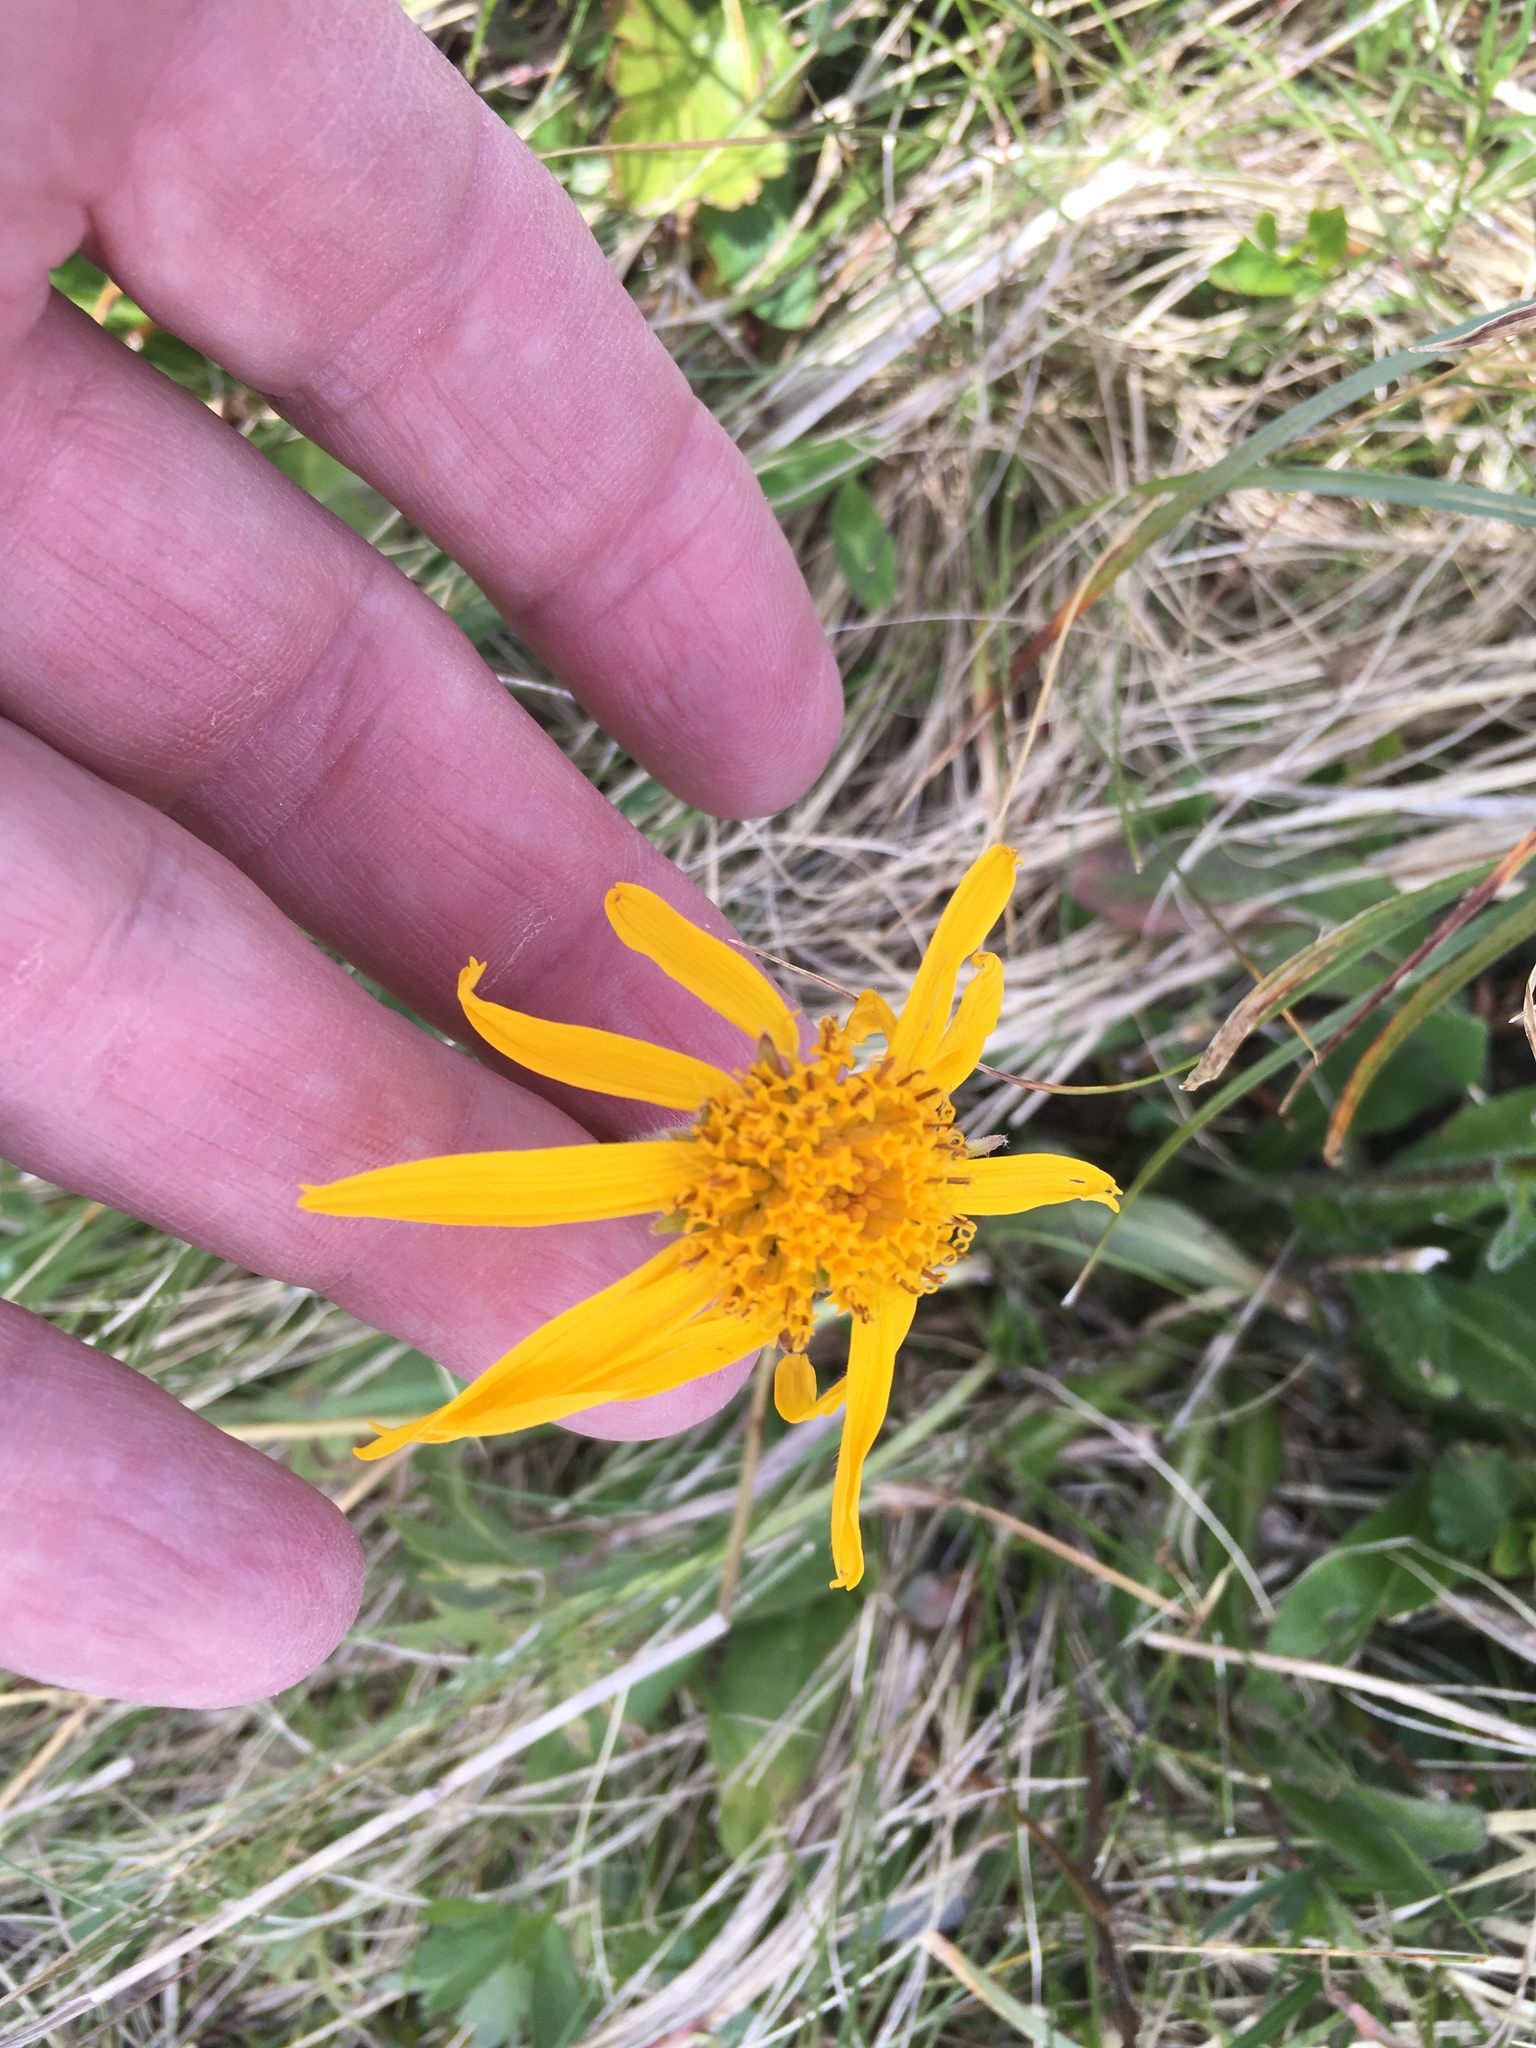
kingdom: Plantae
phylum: Tracheophyta
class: Magnoliopsida
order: Asterales
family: Asteraceae
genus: Arnica
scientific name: Arnica montana
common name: Leopard's bane
